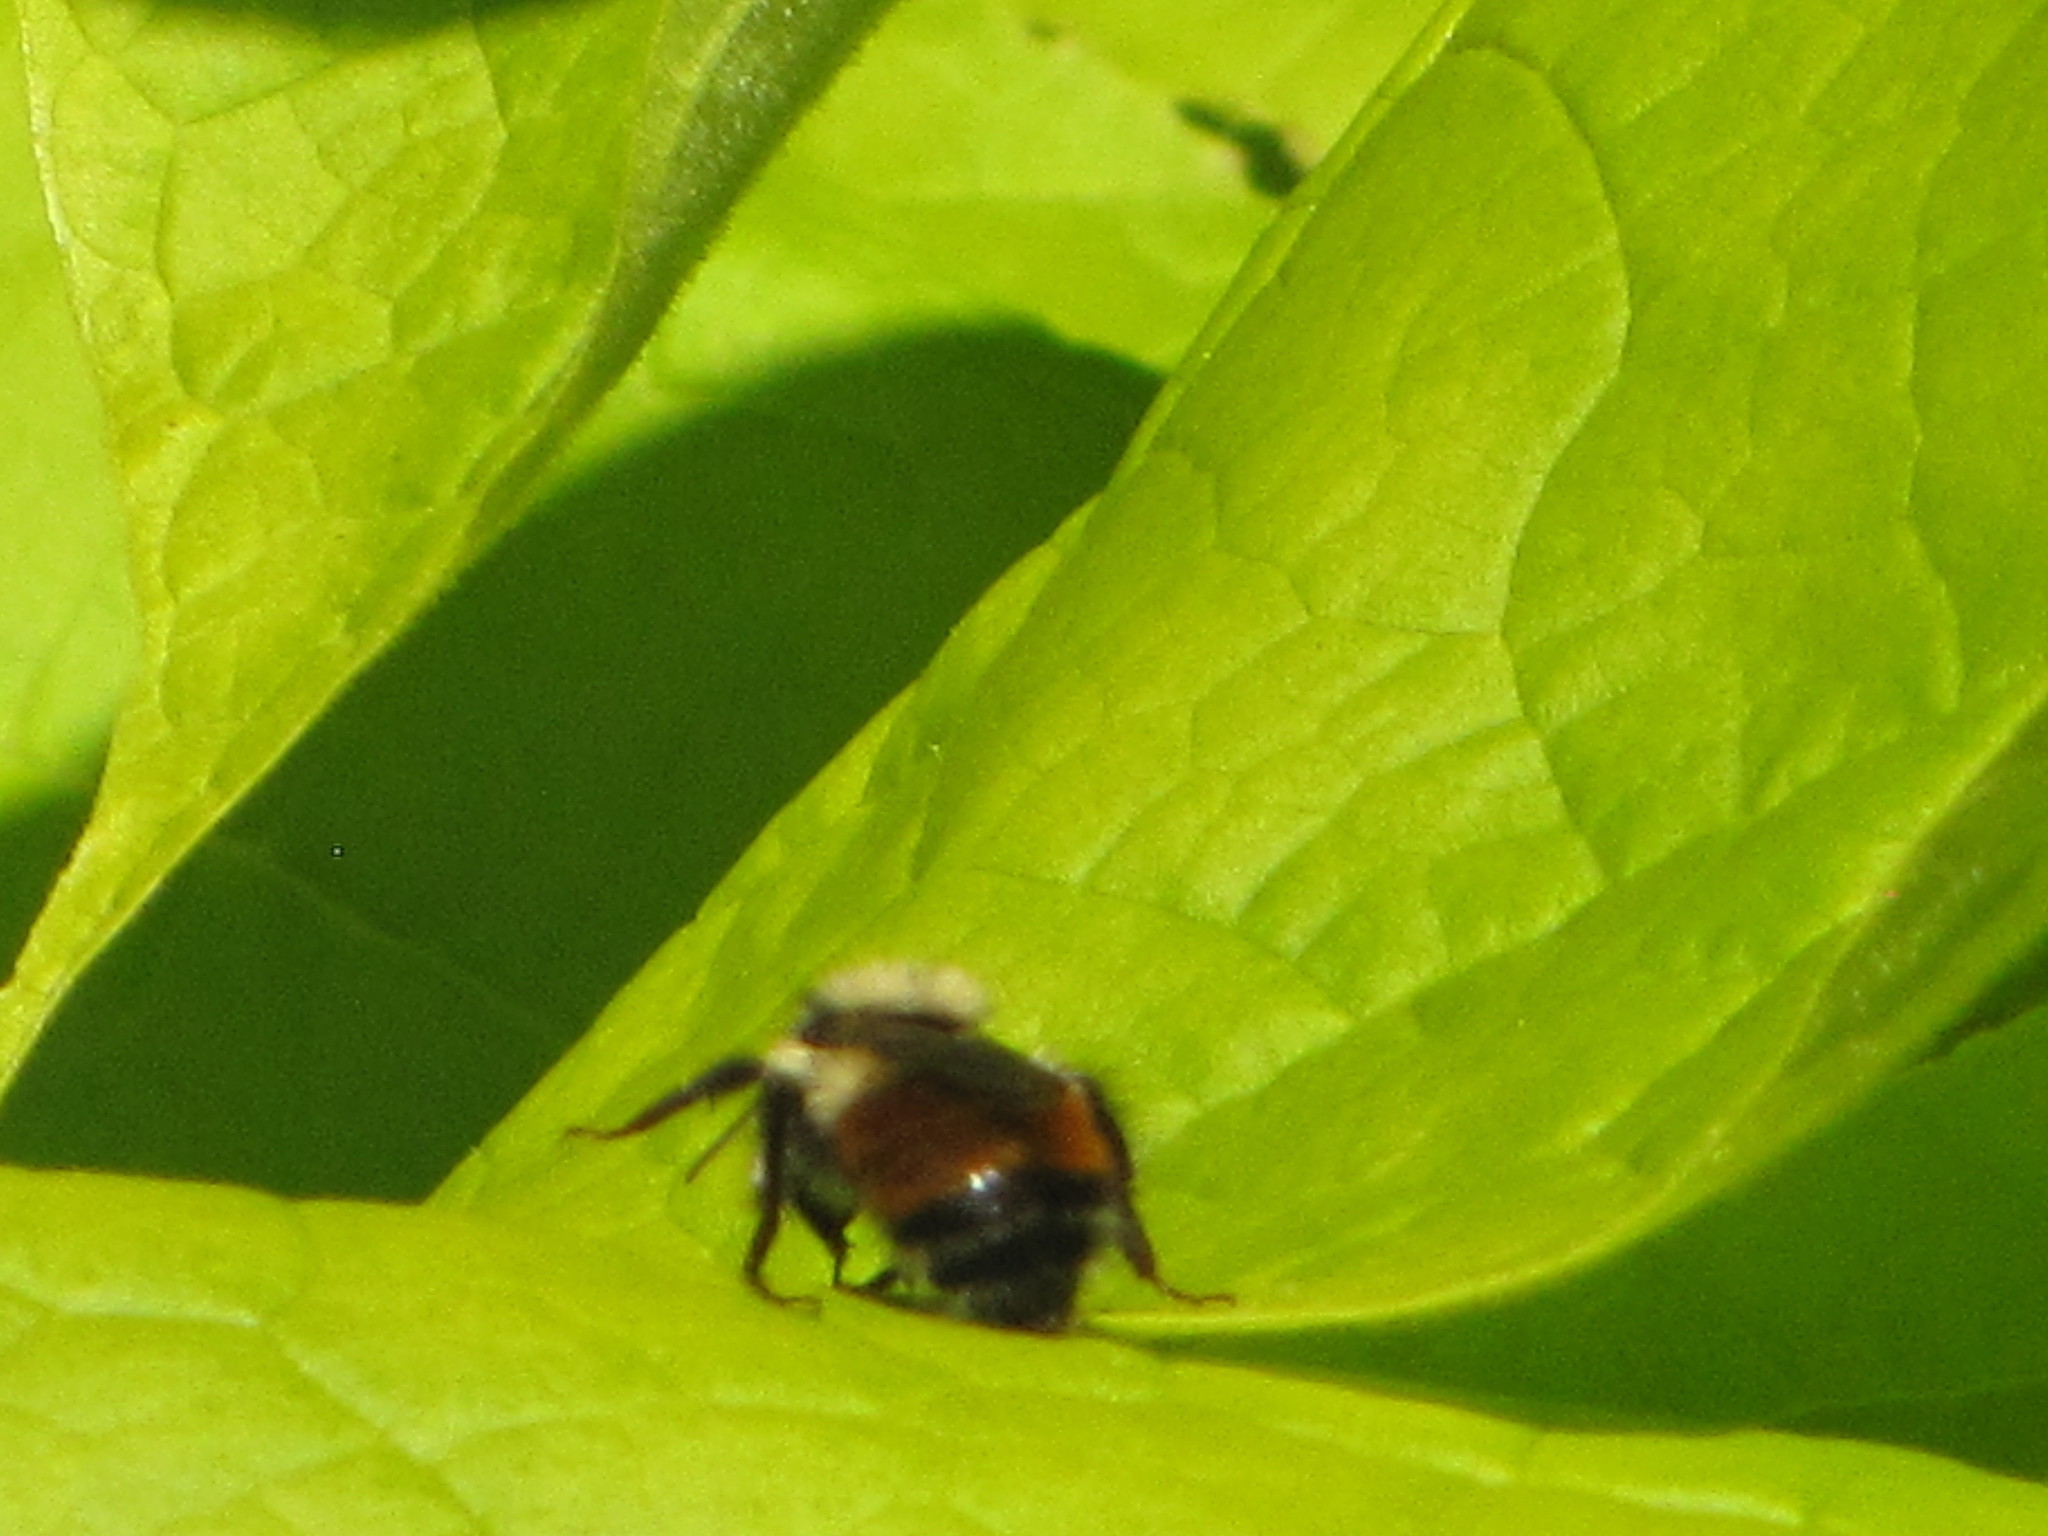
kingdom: Animalia
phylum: Arthropoda
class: Insecta
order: Hymenoptera
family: Apidae
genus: Bombus
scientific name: Bombus melanopygus
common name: Black tail bumble bee
